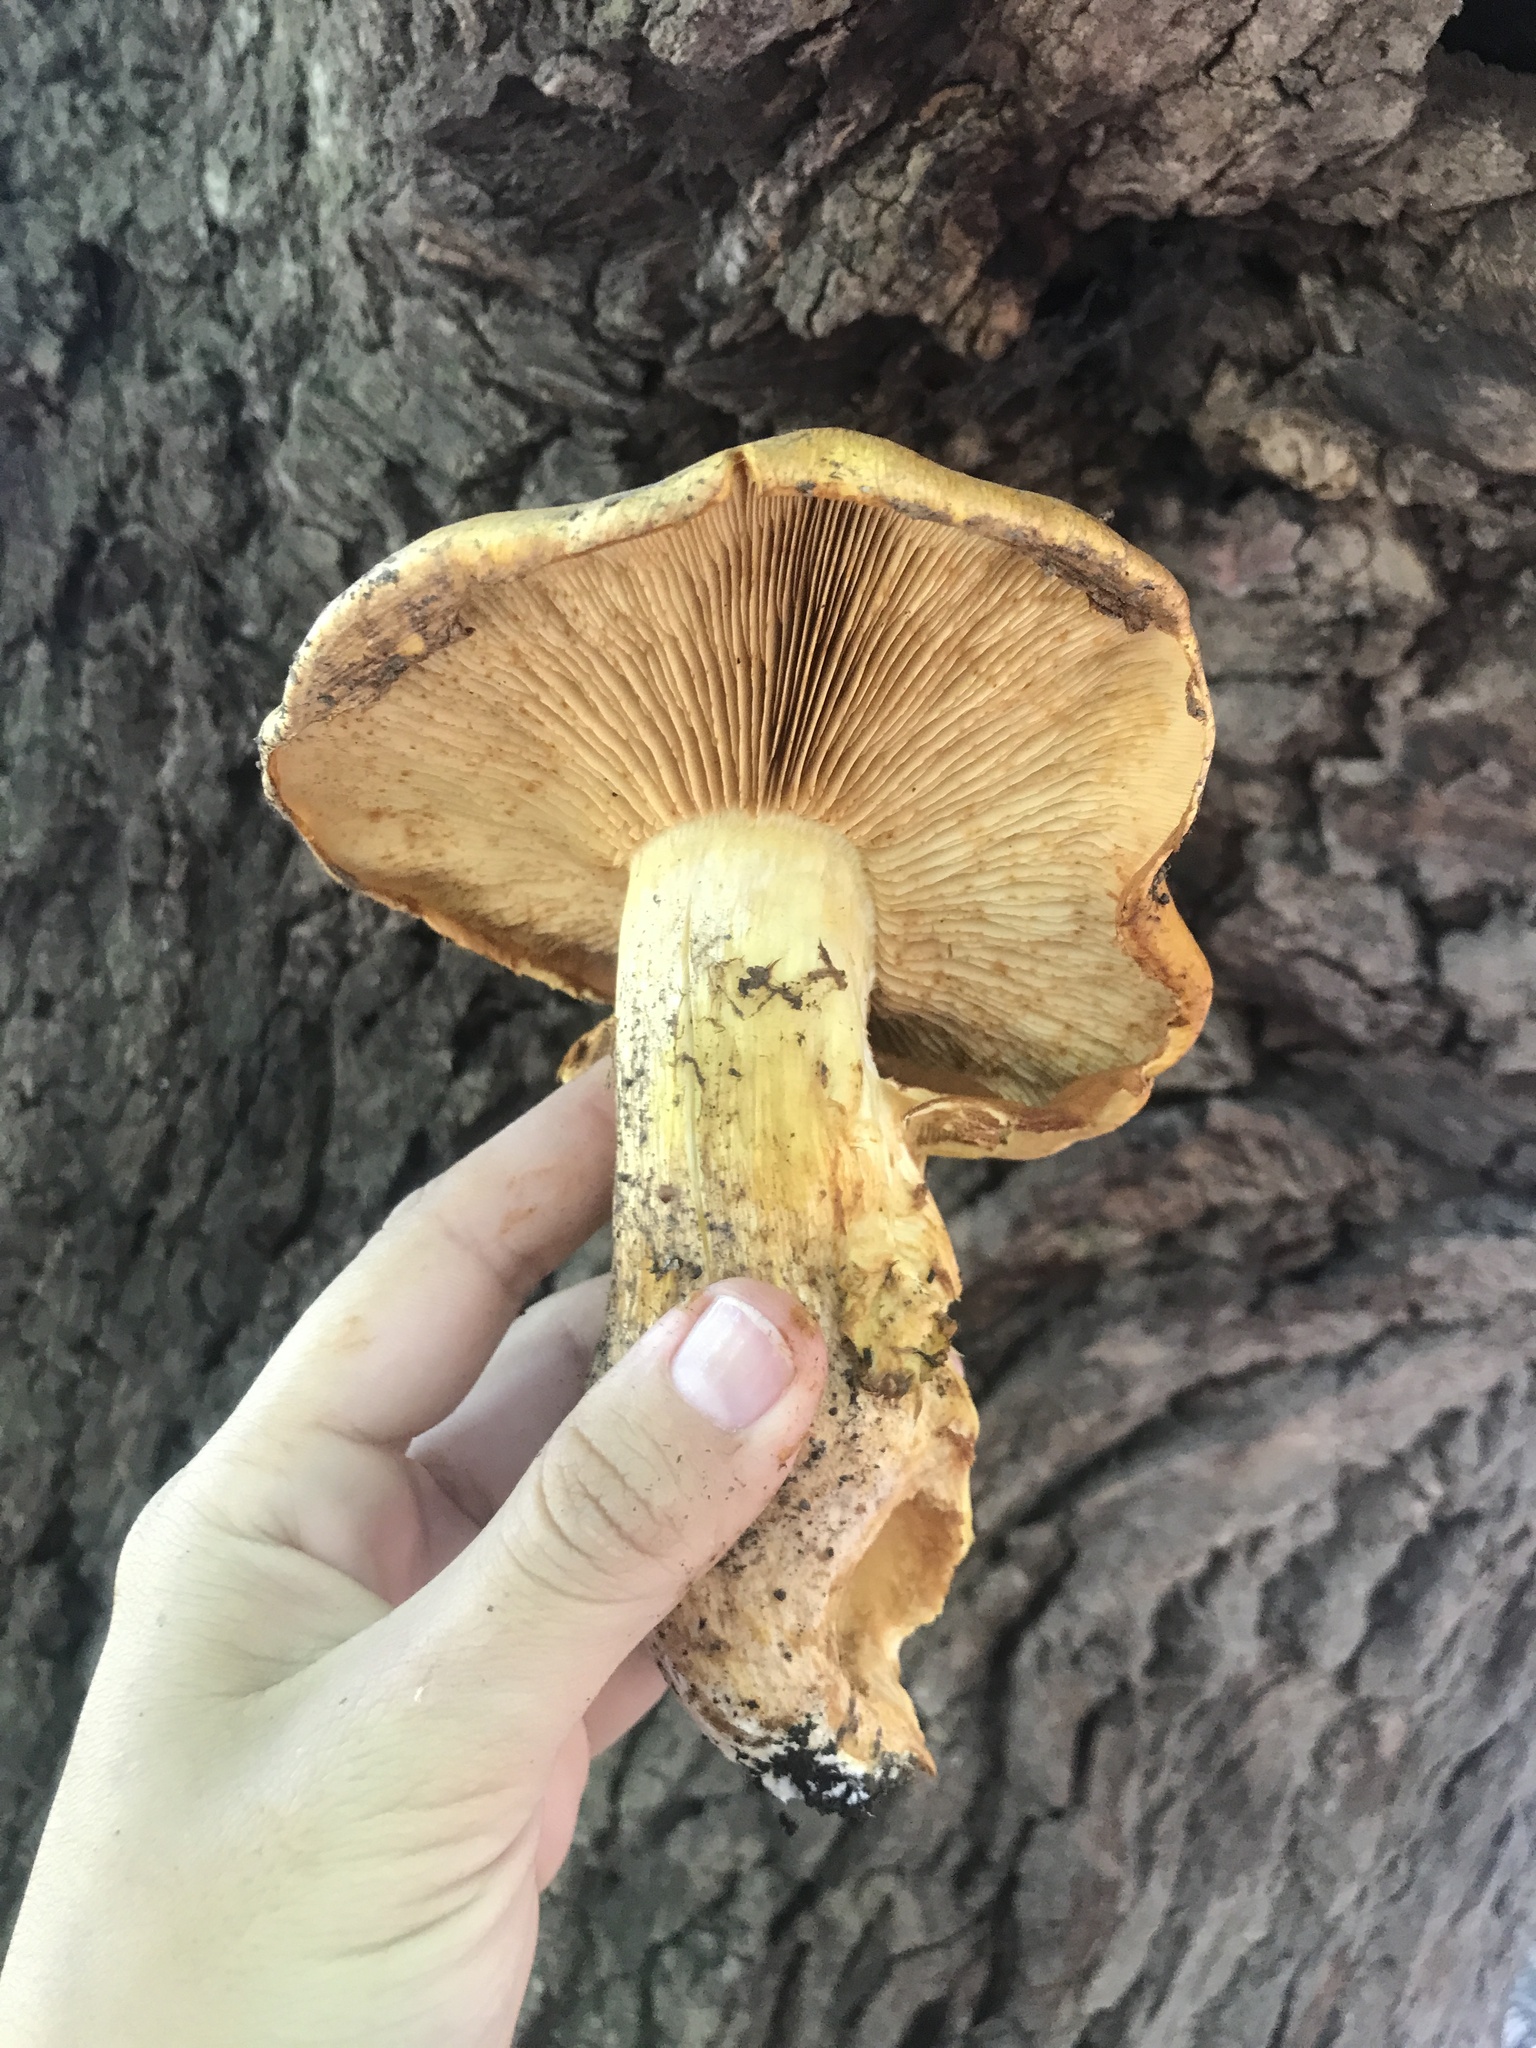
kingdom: Fungi
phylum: Basidiomycota
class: Agaricomycetes
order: Agaricales
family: Hymenogastraceae
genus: Gymnopilus
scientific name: Gymnopilus junonius
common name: Spectacular rustgill
